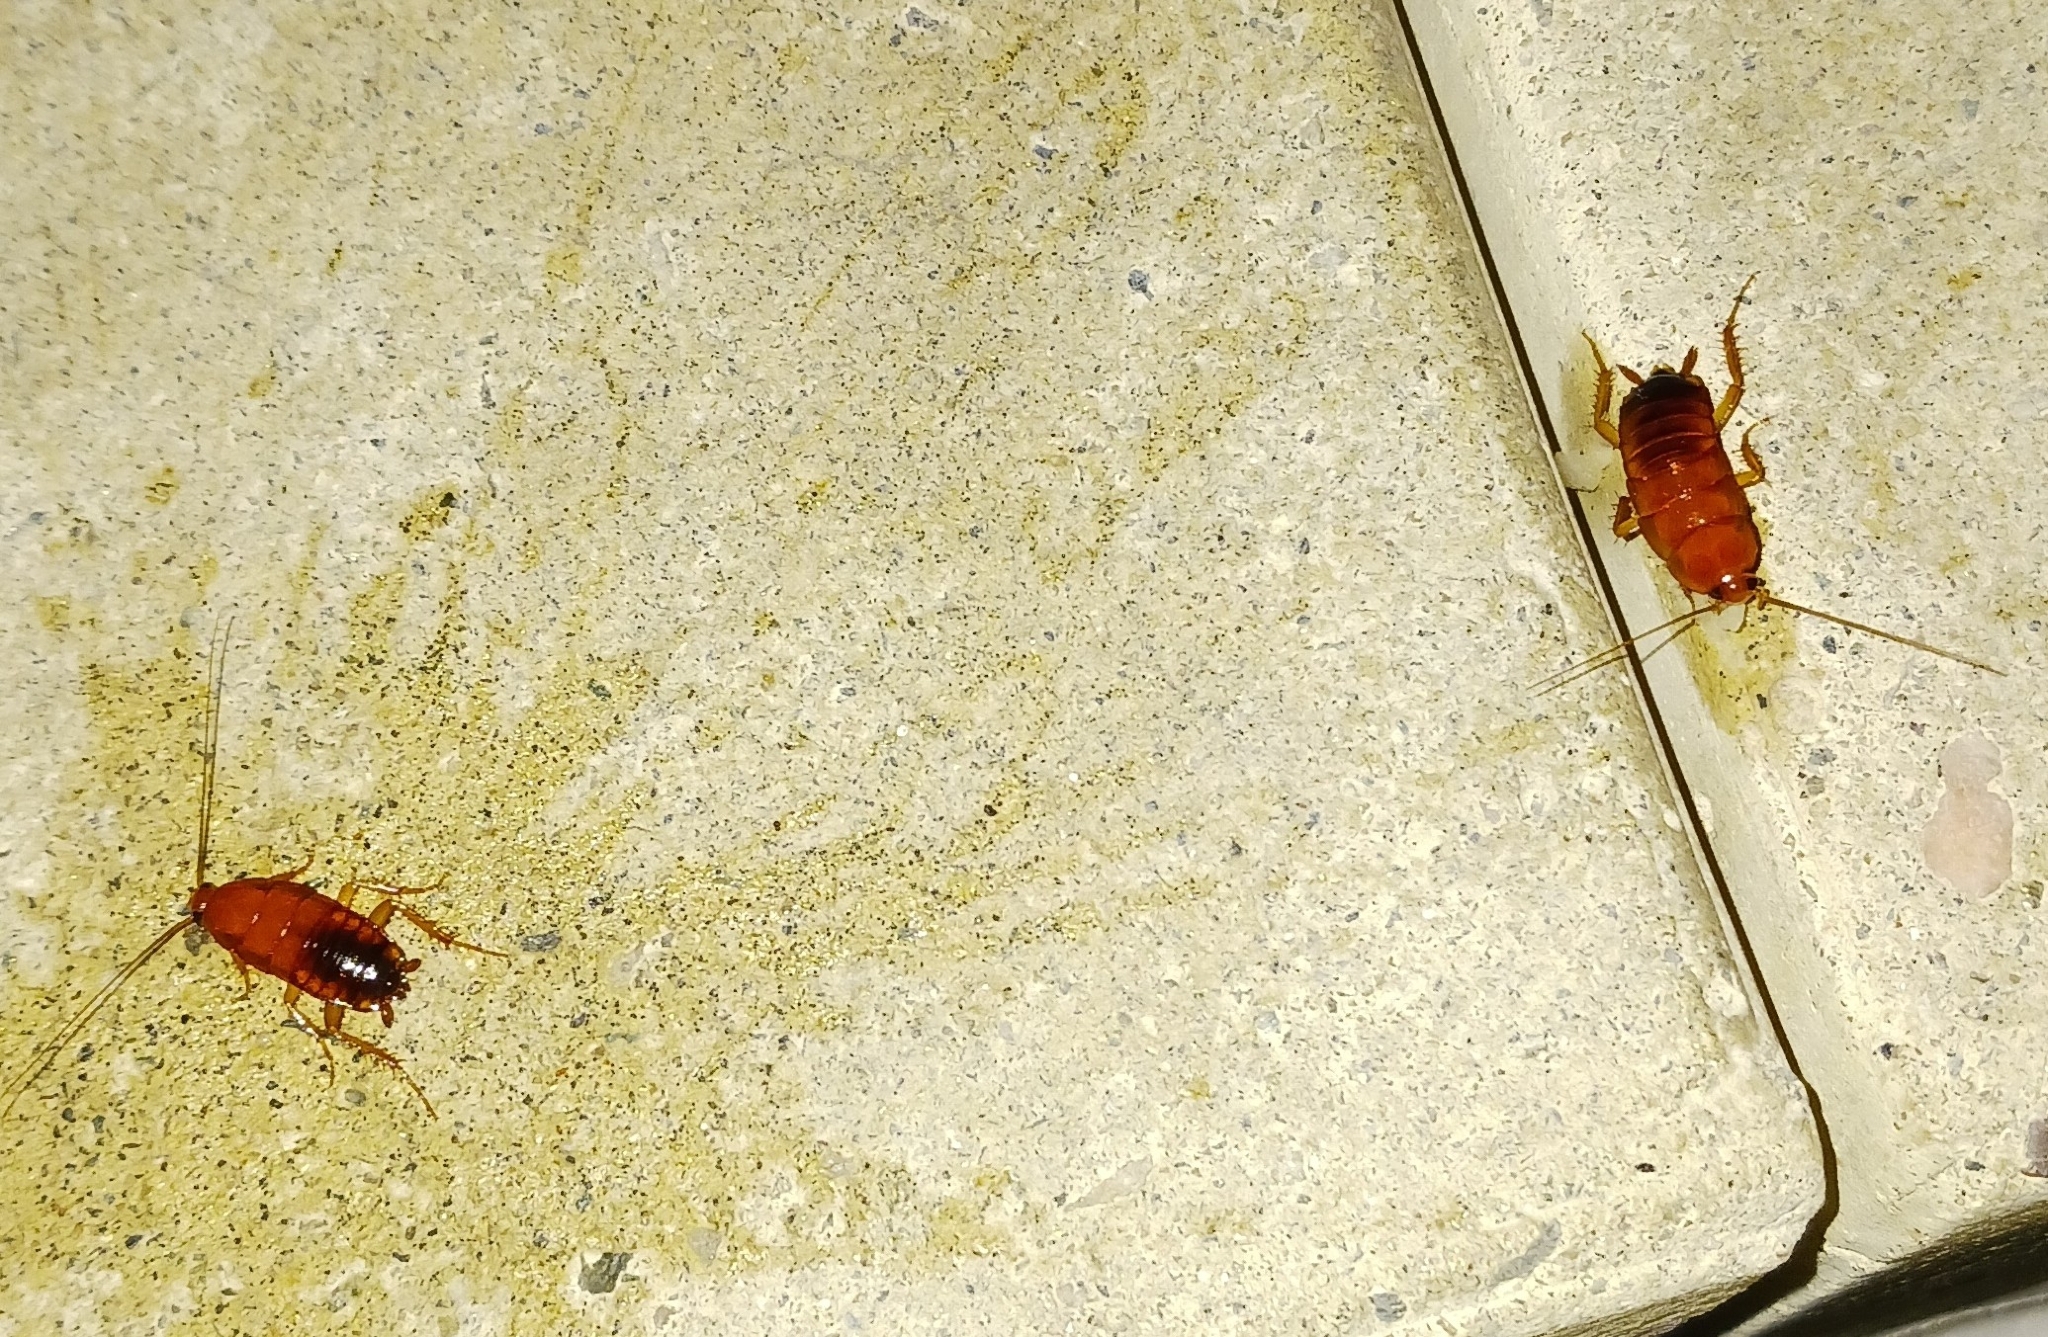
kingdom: Animalia
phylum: Arthropoda
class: Insecta
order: Blattodea
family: Blattidae
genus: Periplaneta
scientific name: Periplaneta lateralis
